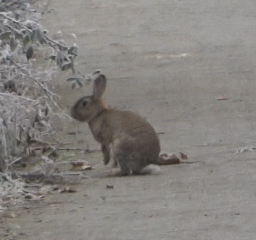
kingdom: Animalia
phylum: Chordata
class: Mammalia
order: Lagomorpha
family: Leporidae
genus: Oryctolagus
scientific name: Oryctolagus cuniculus
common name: European rabbit
